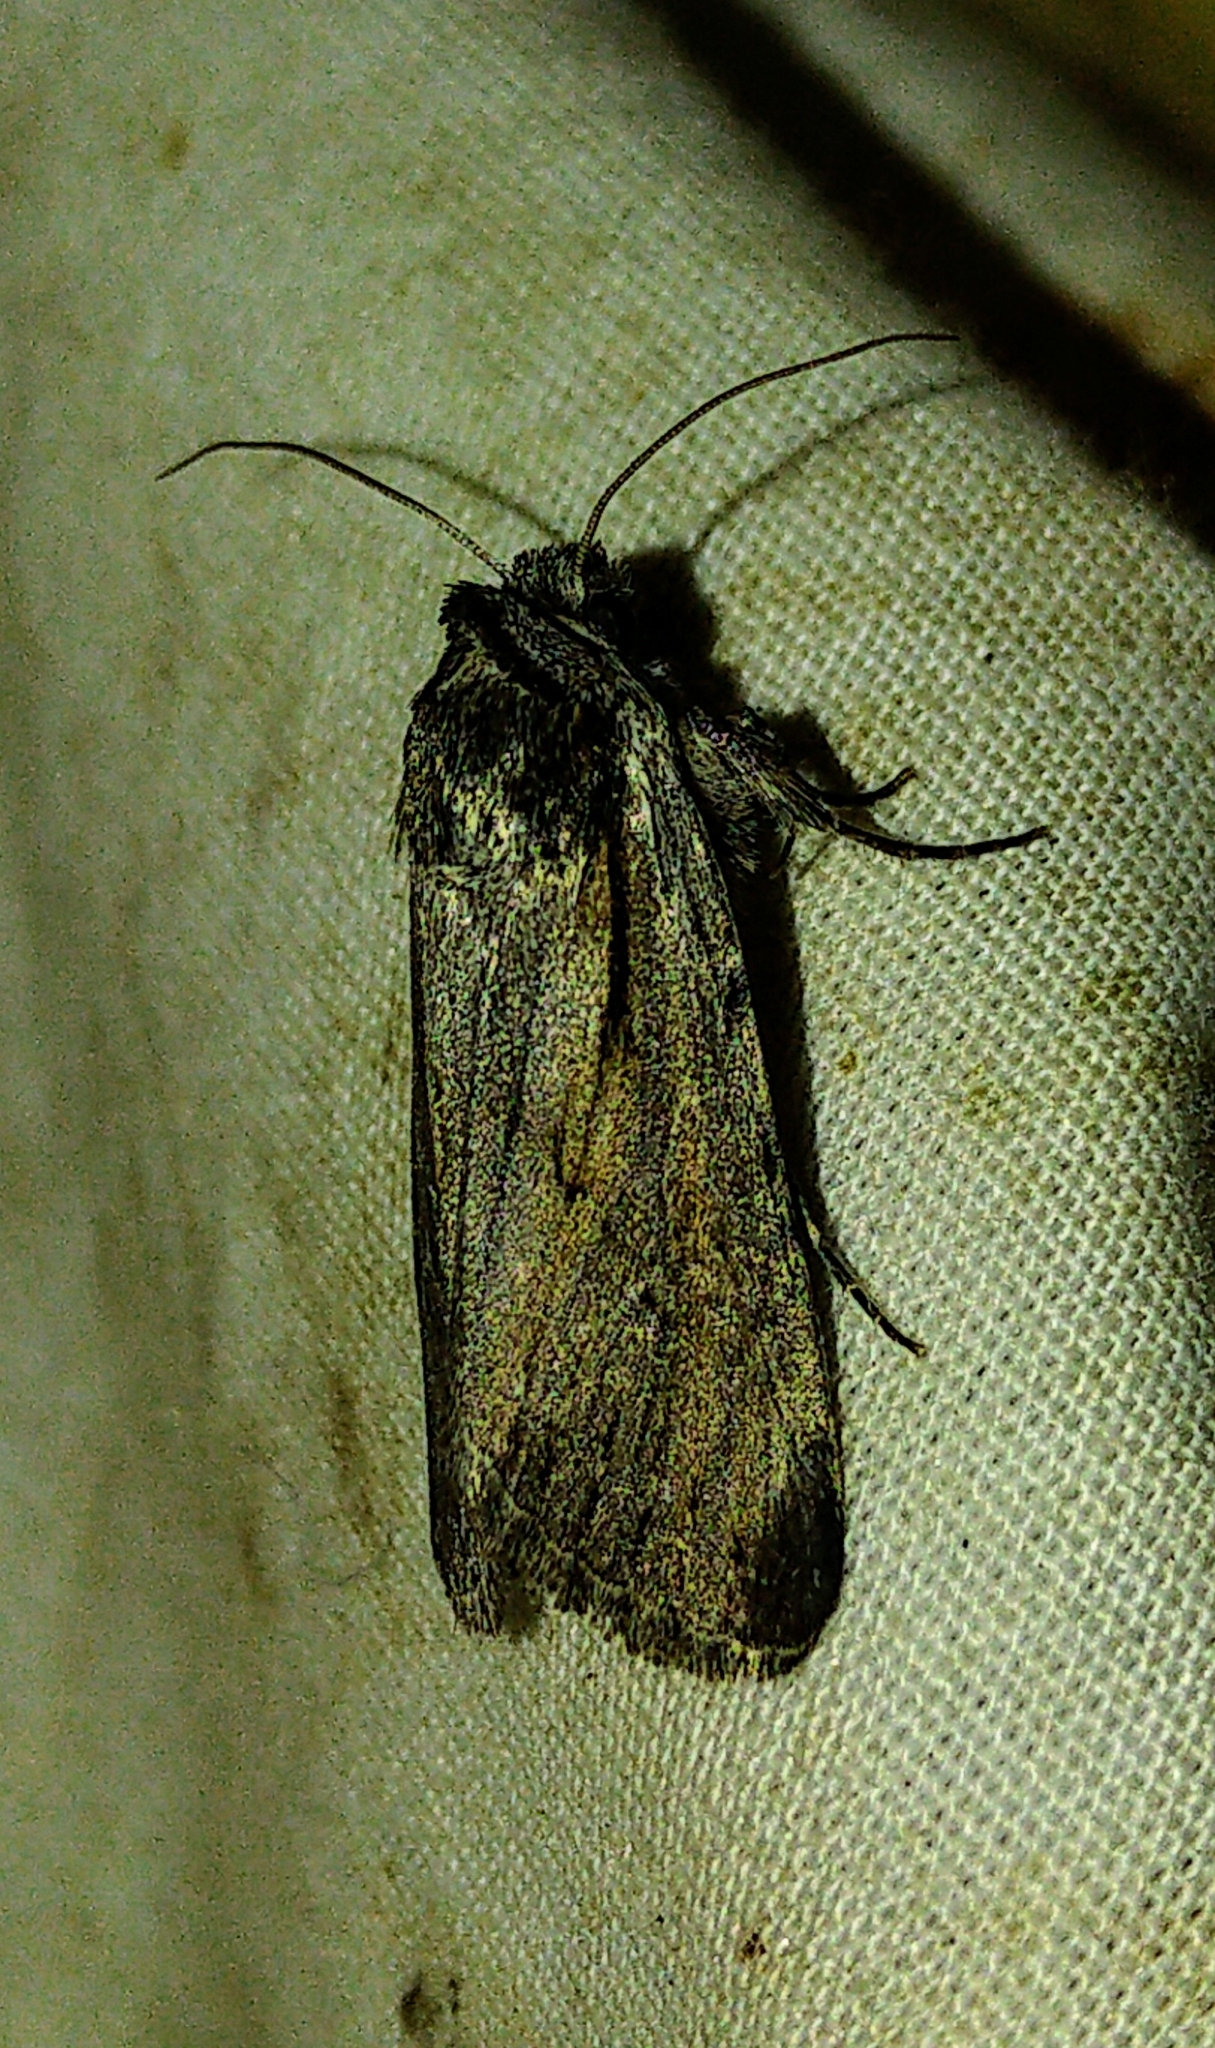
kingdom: Animalia
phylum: Arthropoda
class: Insecta
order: Lepidoptera
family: Noctuidae
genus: Sympistis
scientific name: Sympistis mackiei
